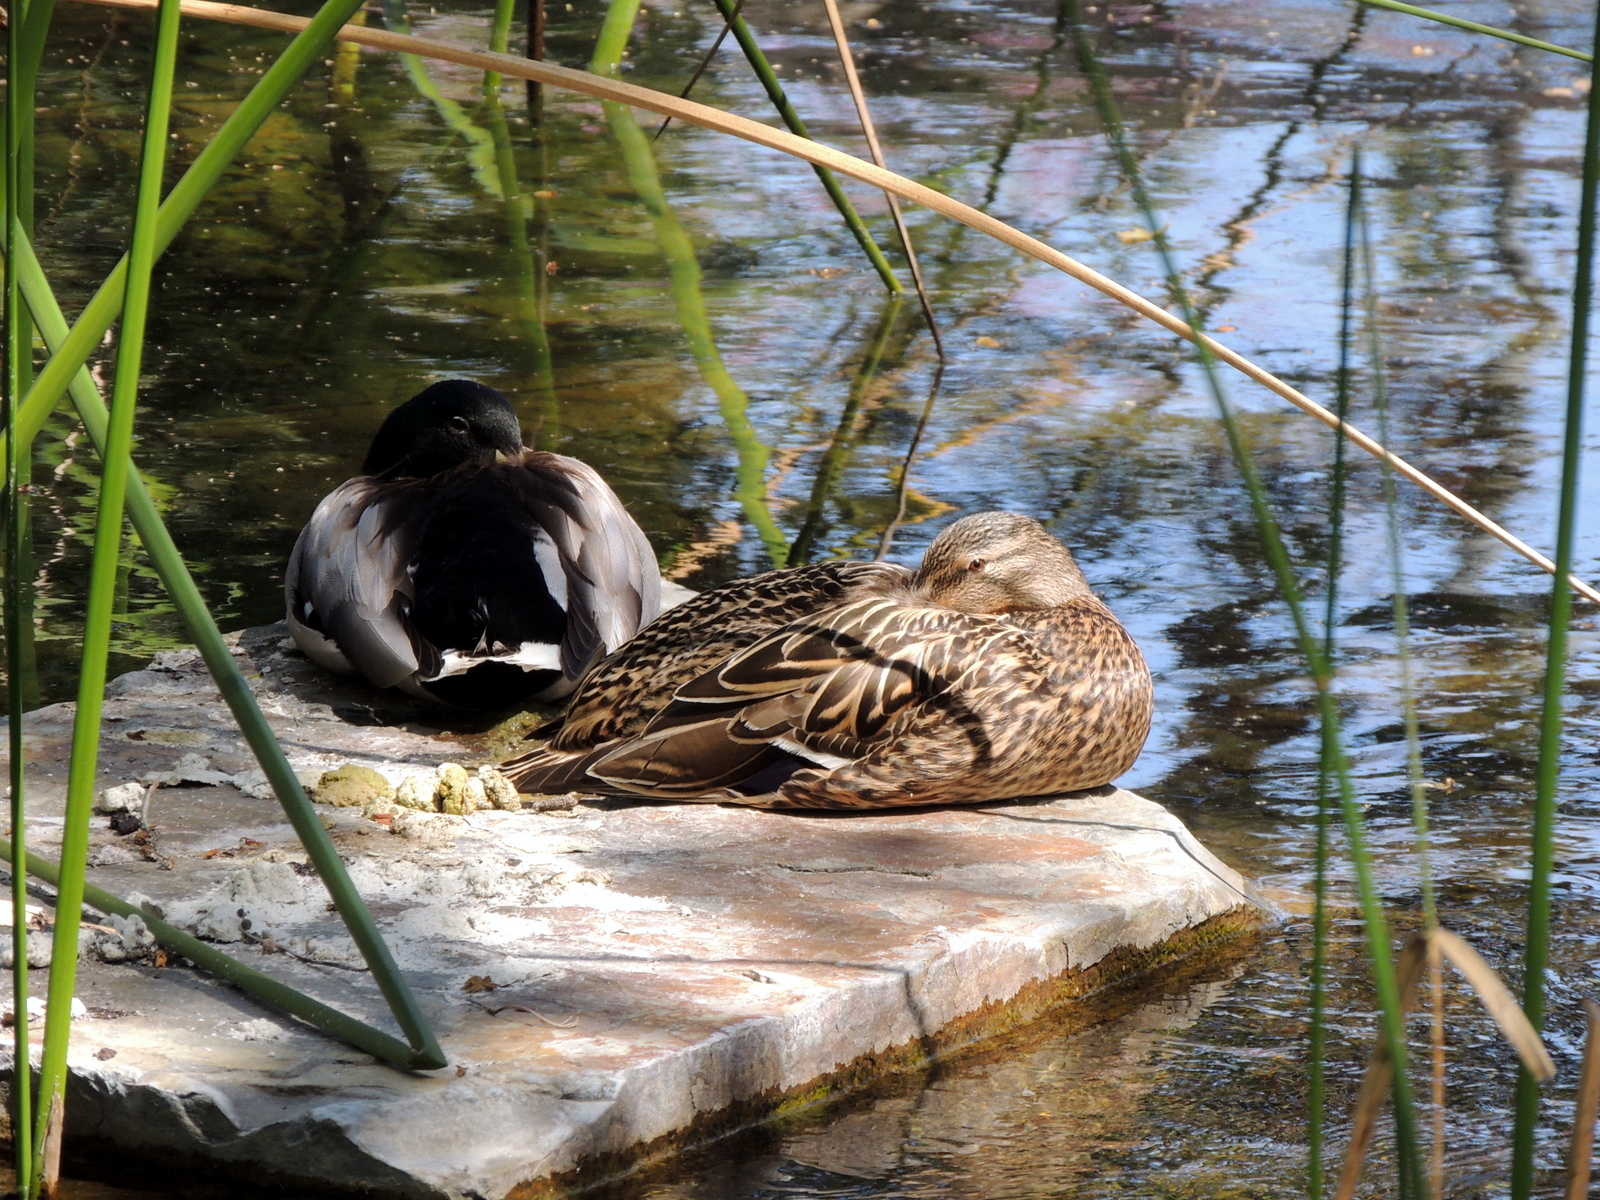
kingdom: Animalia
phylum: Chordata
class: Aves
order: Anseriformes
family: Anatidae
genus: Anas
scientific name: Anas platyrhynchos
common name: Mallard
